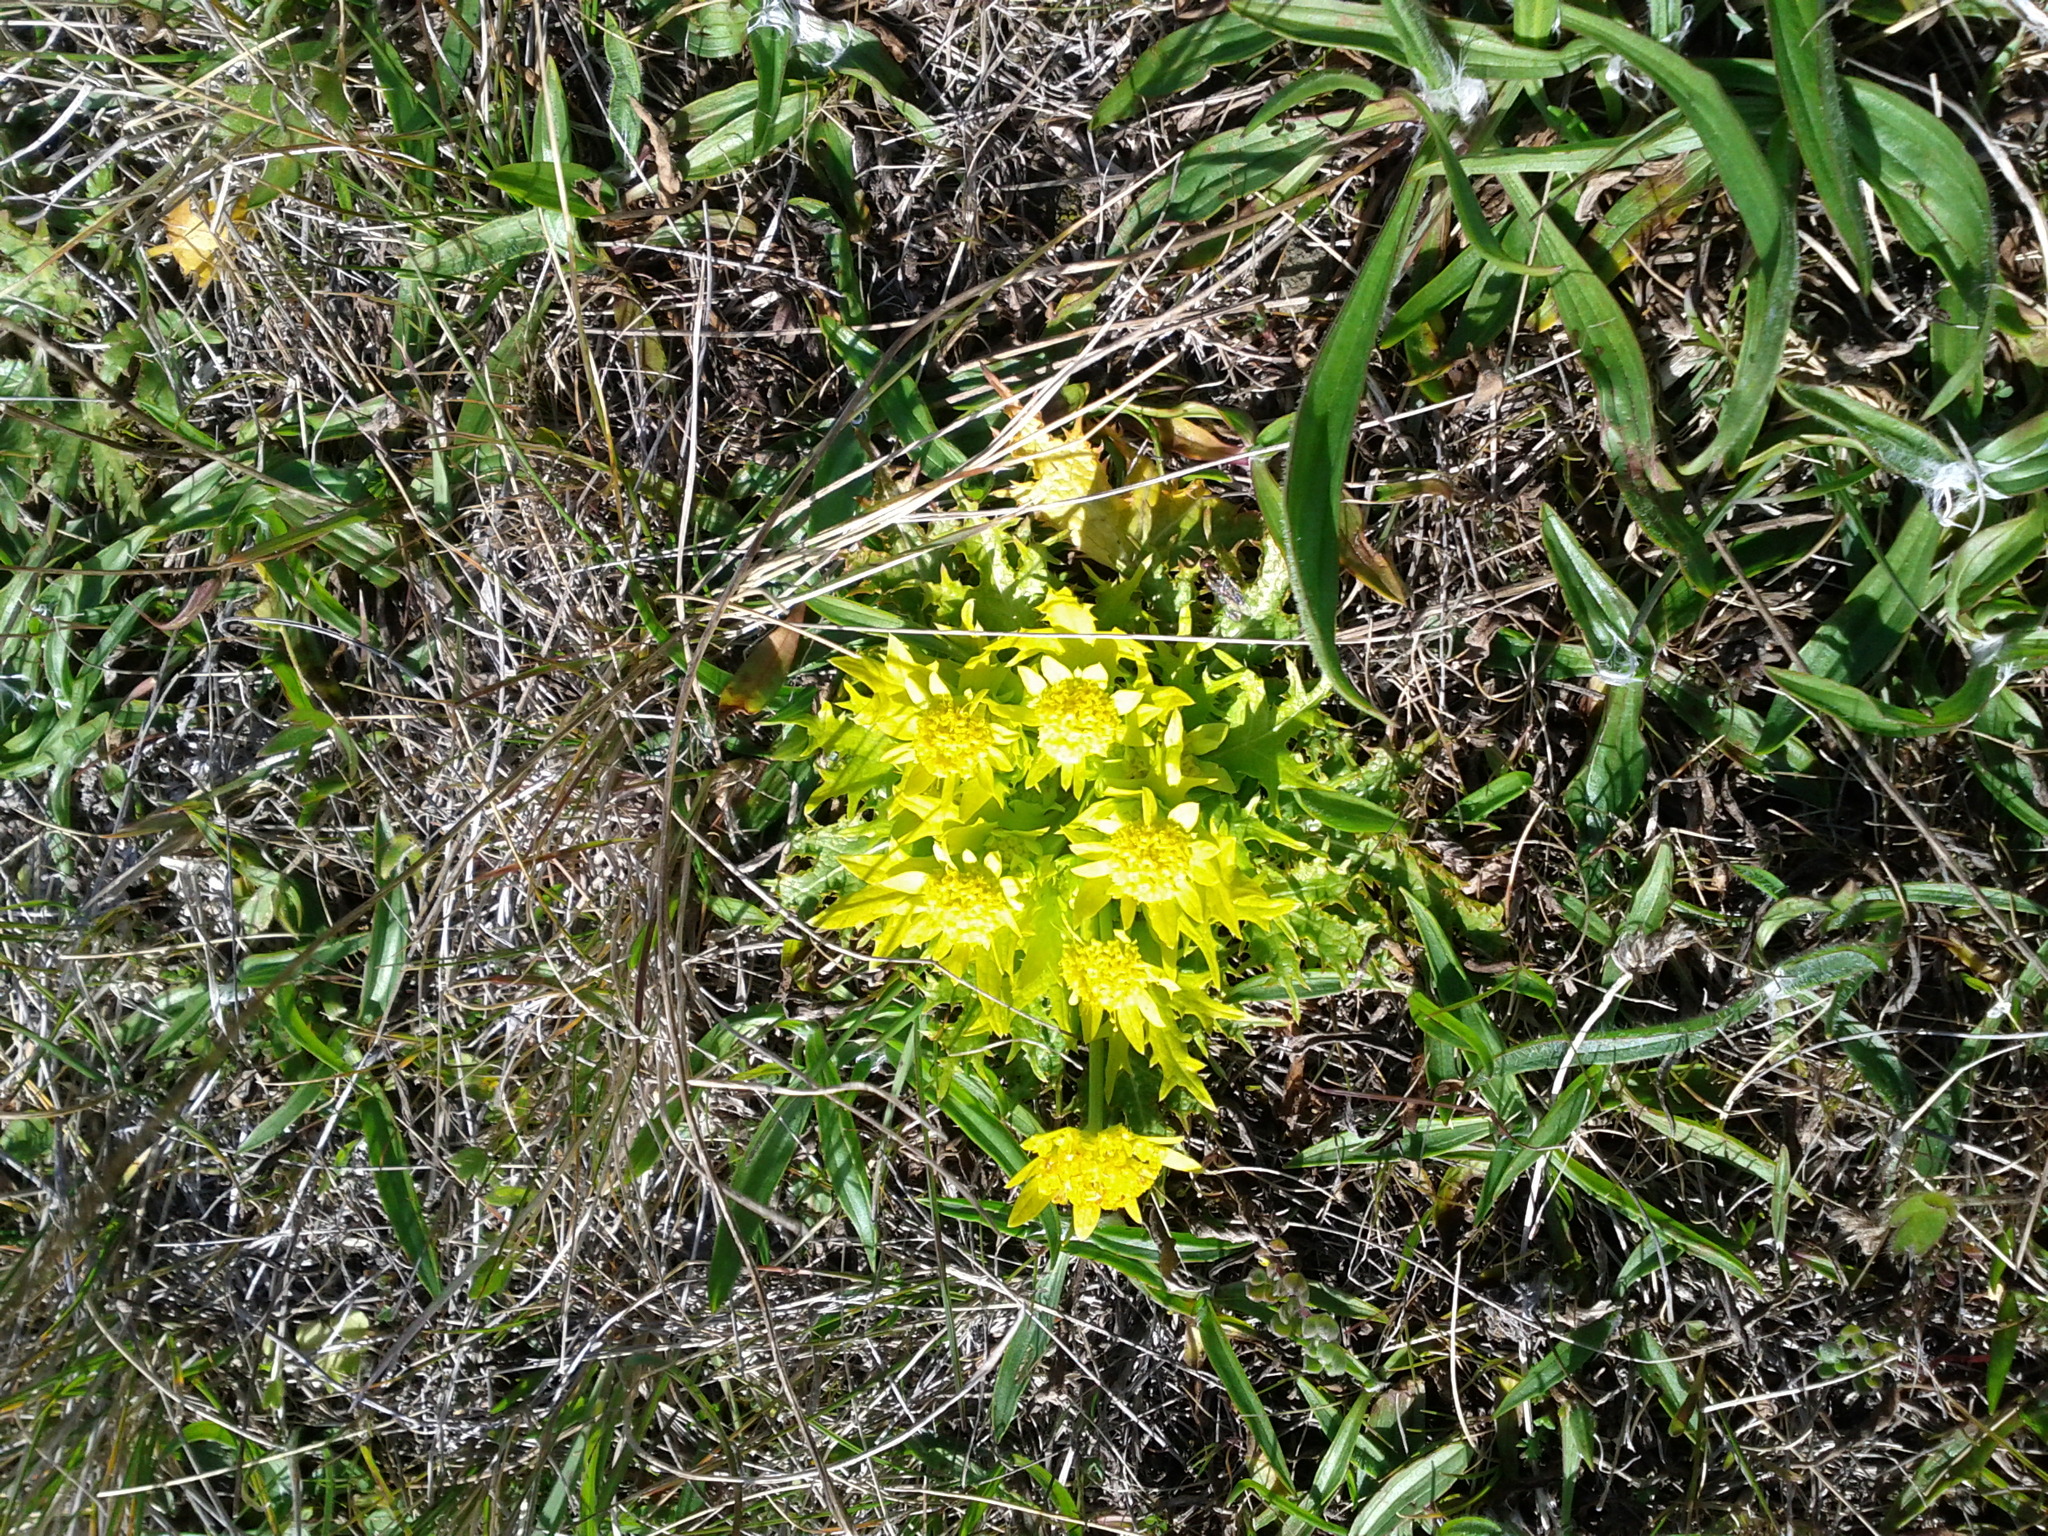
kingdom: Plantae
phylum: Tracheophyta
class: Magnoliopsida
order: Apiales
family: Apiaceae
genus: Sanicula
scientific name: Sanicula arctopoides
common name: Footsteps-of-spring
